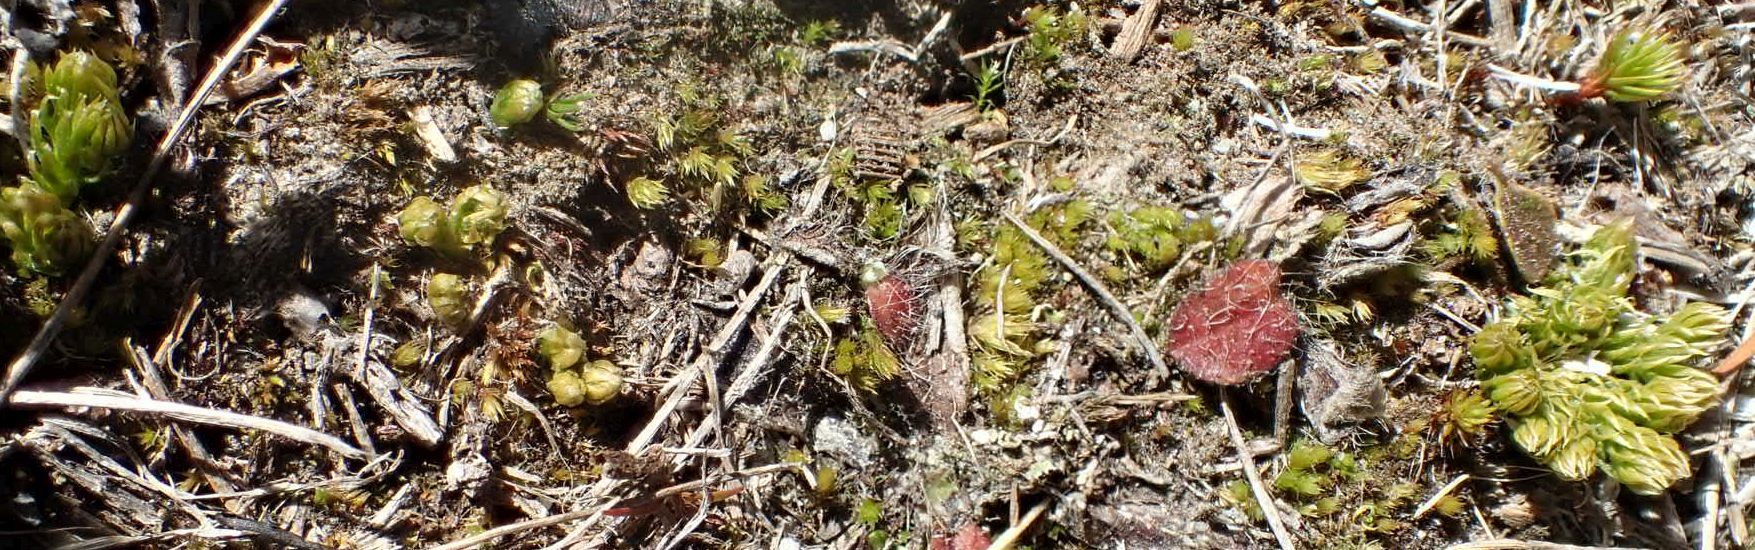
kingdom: Plantae
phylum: Bryophyta
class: Polytrichopsida
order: Polytrichales
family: Polytrichaceae
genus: Polytrichum
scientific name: Polytrichum juniperinum
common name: Juniper haircap moss
